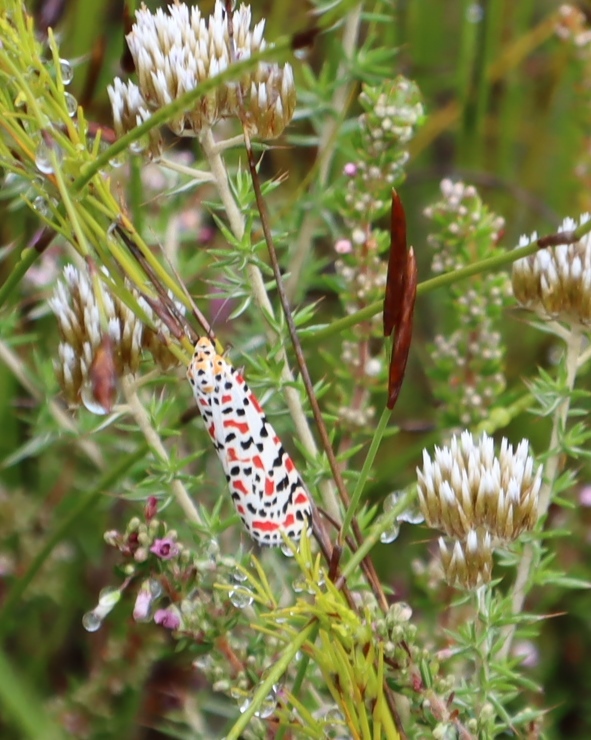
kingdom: Animalia
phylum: Arthropoda
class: Insecta
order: Lepidoptera
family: Erebidae
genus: Utetheisa
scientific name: Utetheisa pulchella
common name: Crimson speckled
